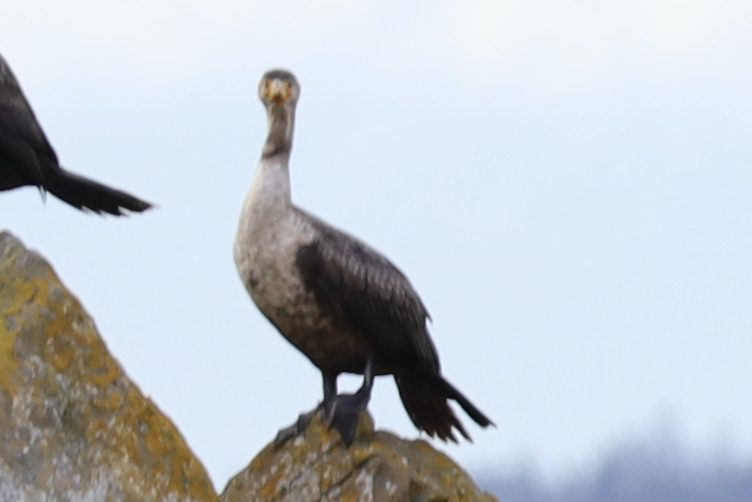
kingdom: Animalia
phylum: Chordata
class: Aves
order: Suliformes
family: Phalacrocoracidae
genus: Phalacrocorax
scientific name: Phalacrocorax auritus
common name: Double-crested cormorant
